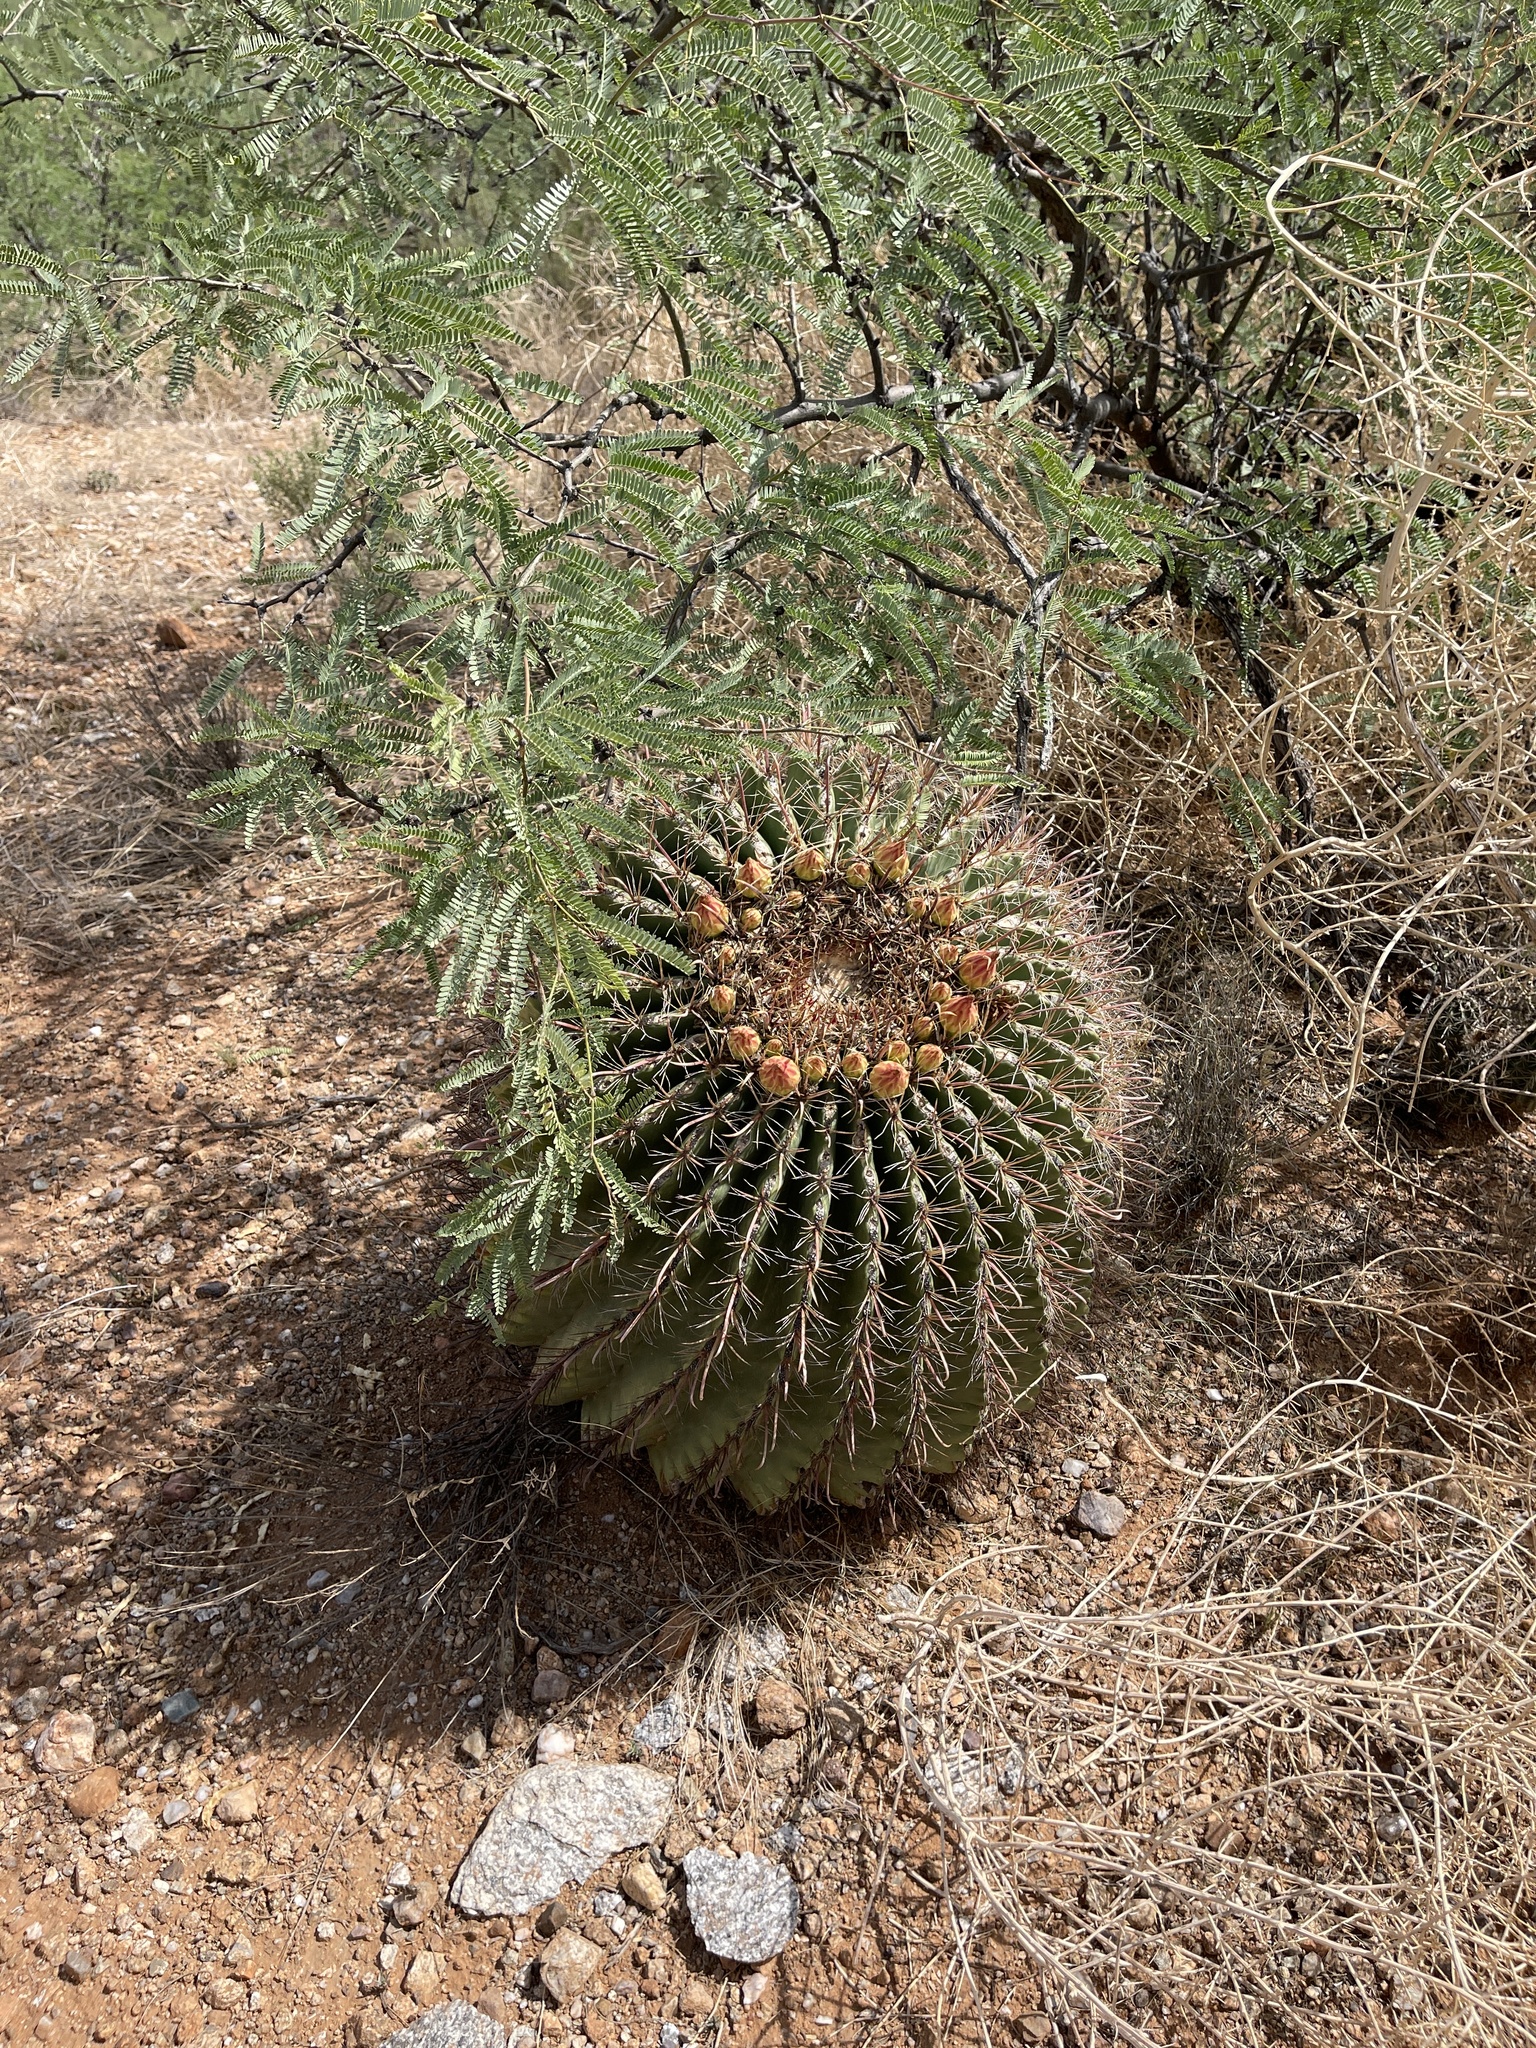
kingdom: Plantae
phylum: Tracheophyta
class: Magnoliopsida
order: Caryophyllales
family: Cactaceae
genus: Ferocactus
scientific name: Ferocactus wislizeni
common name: Candy barrel cactus
